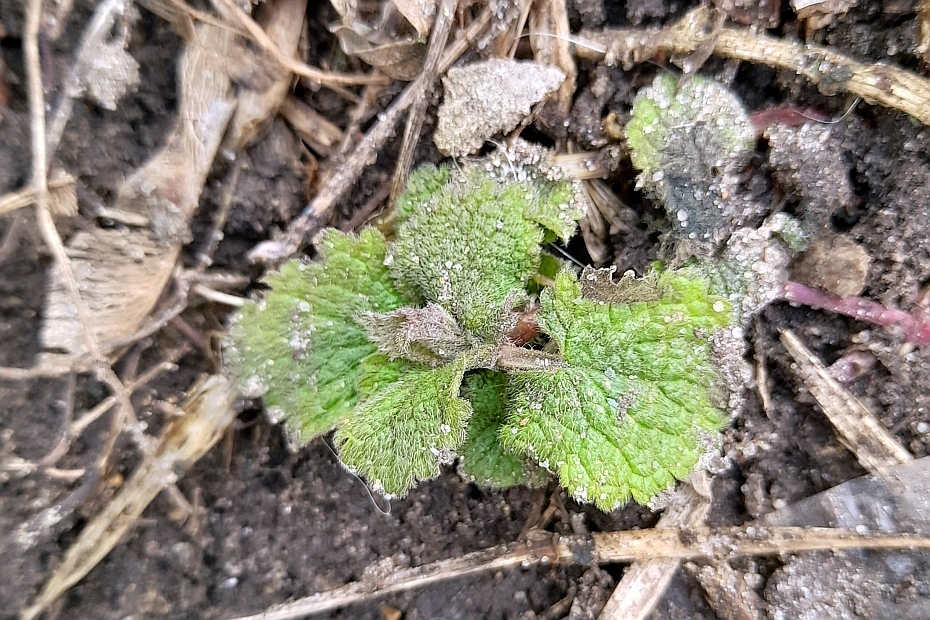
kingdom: Plantae
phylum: Tracheophyta
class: Magnoliopsida
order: Lamiales
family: Lamiaceae
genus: Lamium
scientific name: Lamium album
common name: White dead-nettle
